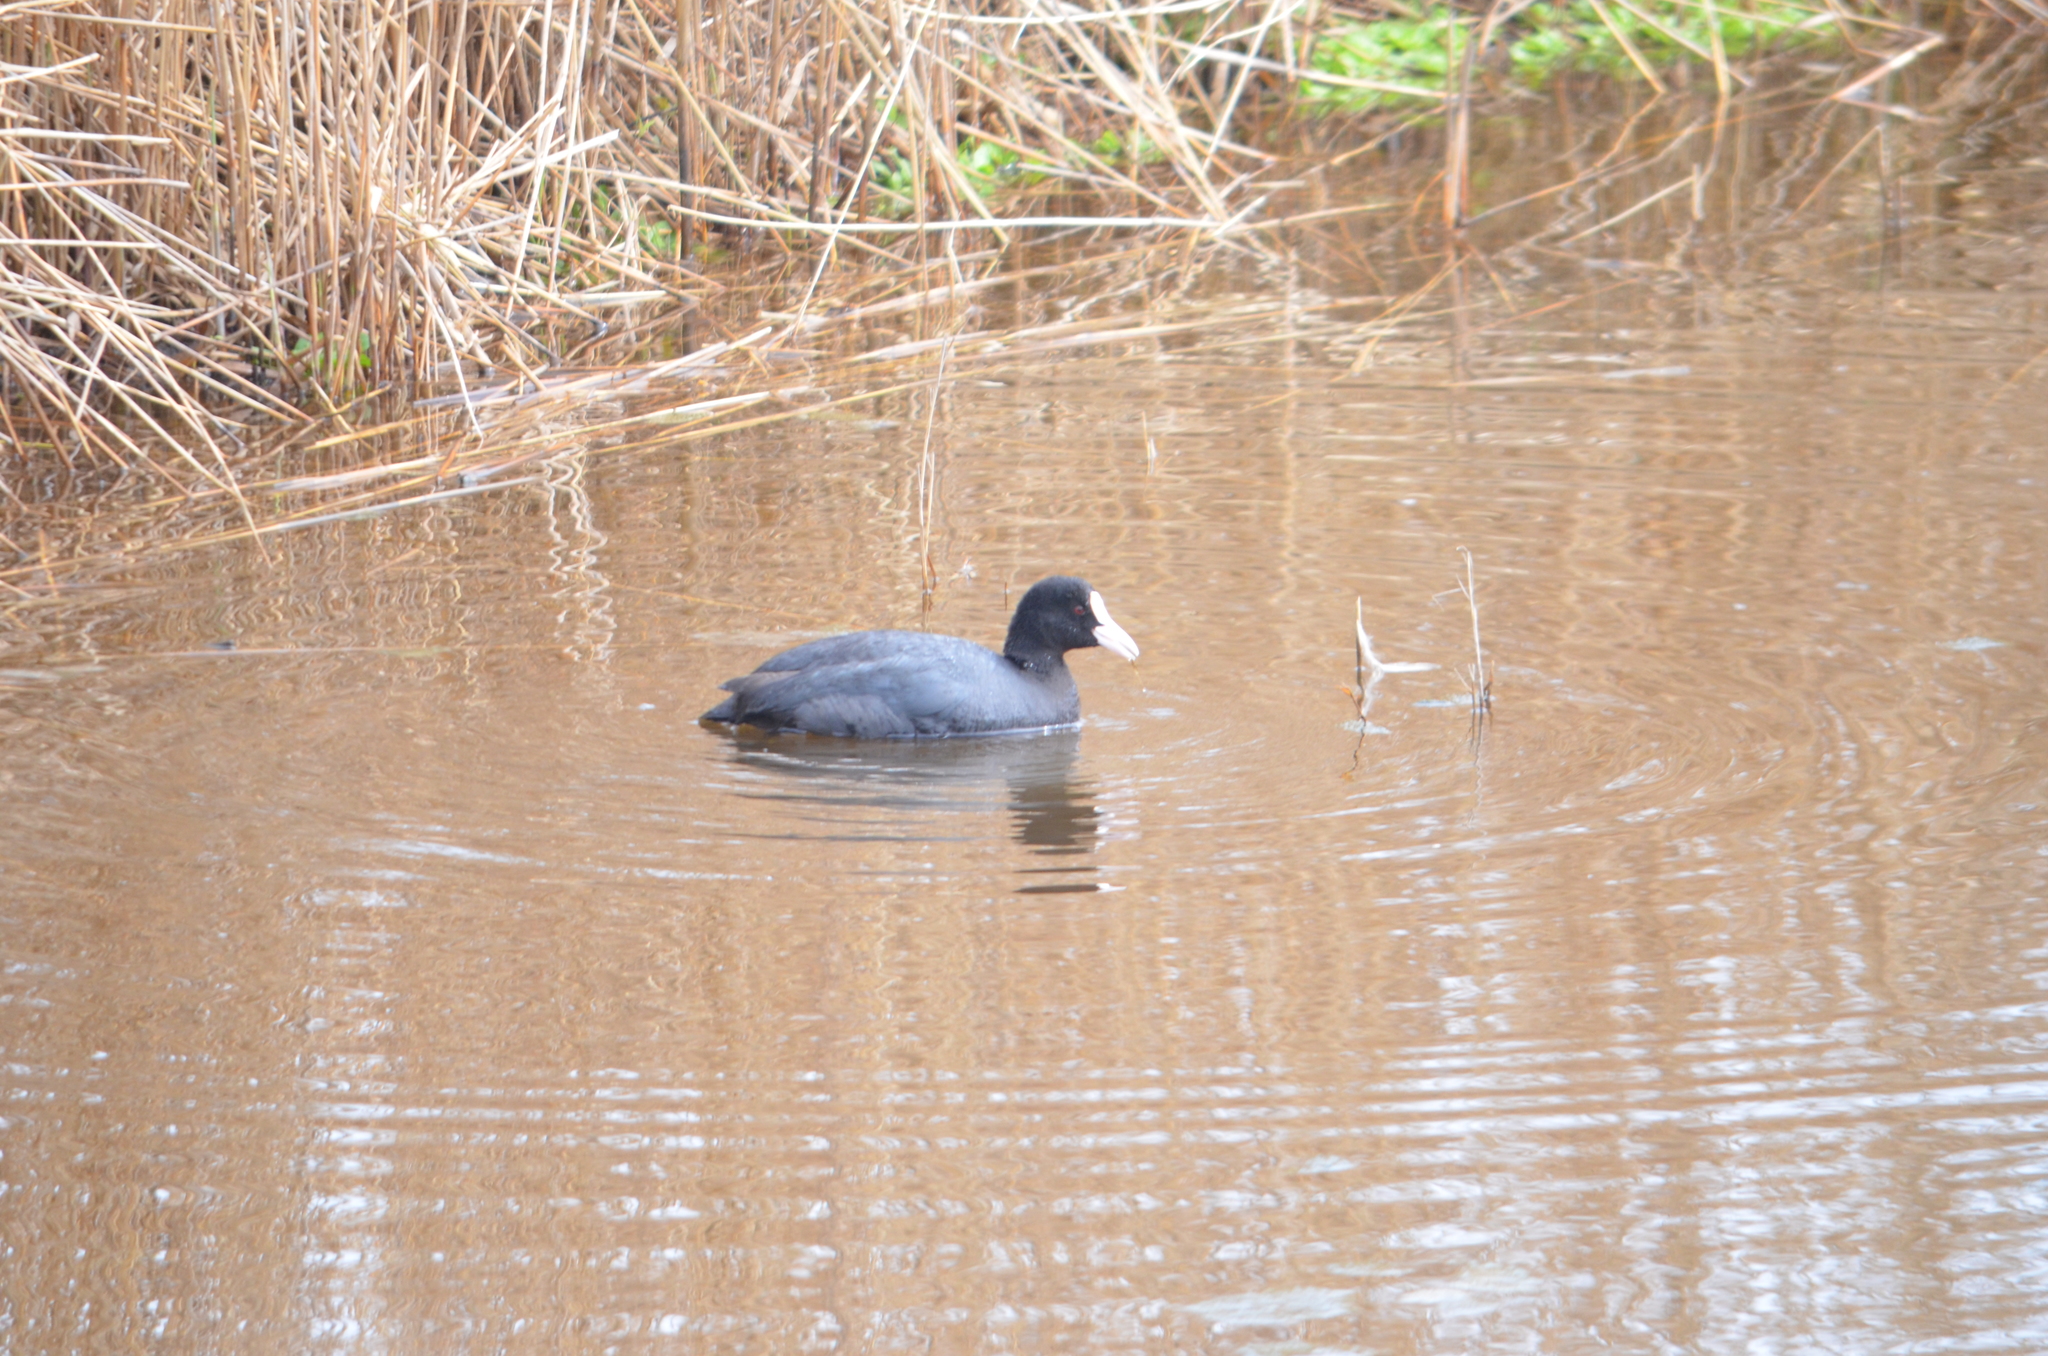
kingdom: Animalia
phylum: Chordata
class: Aves
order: Gruiformes
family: Rallidae
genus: Fulica
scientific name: Fulica atra
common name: Eurasian coot
